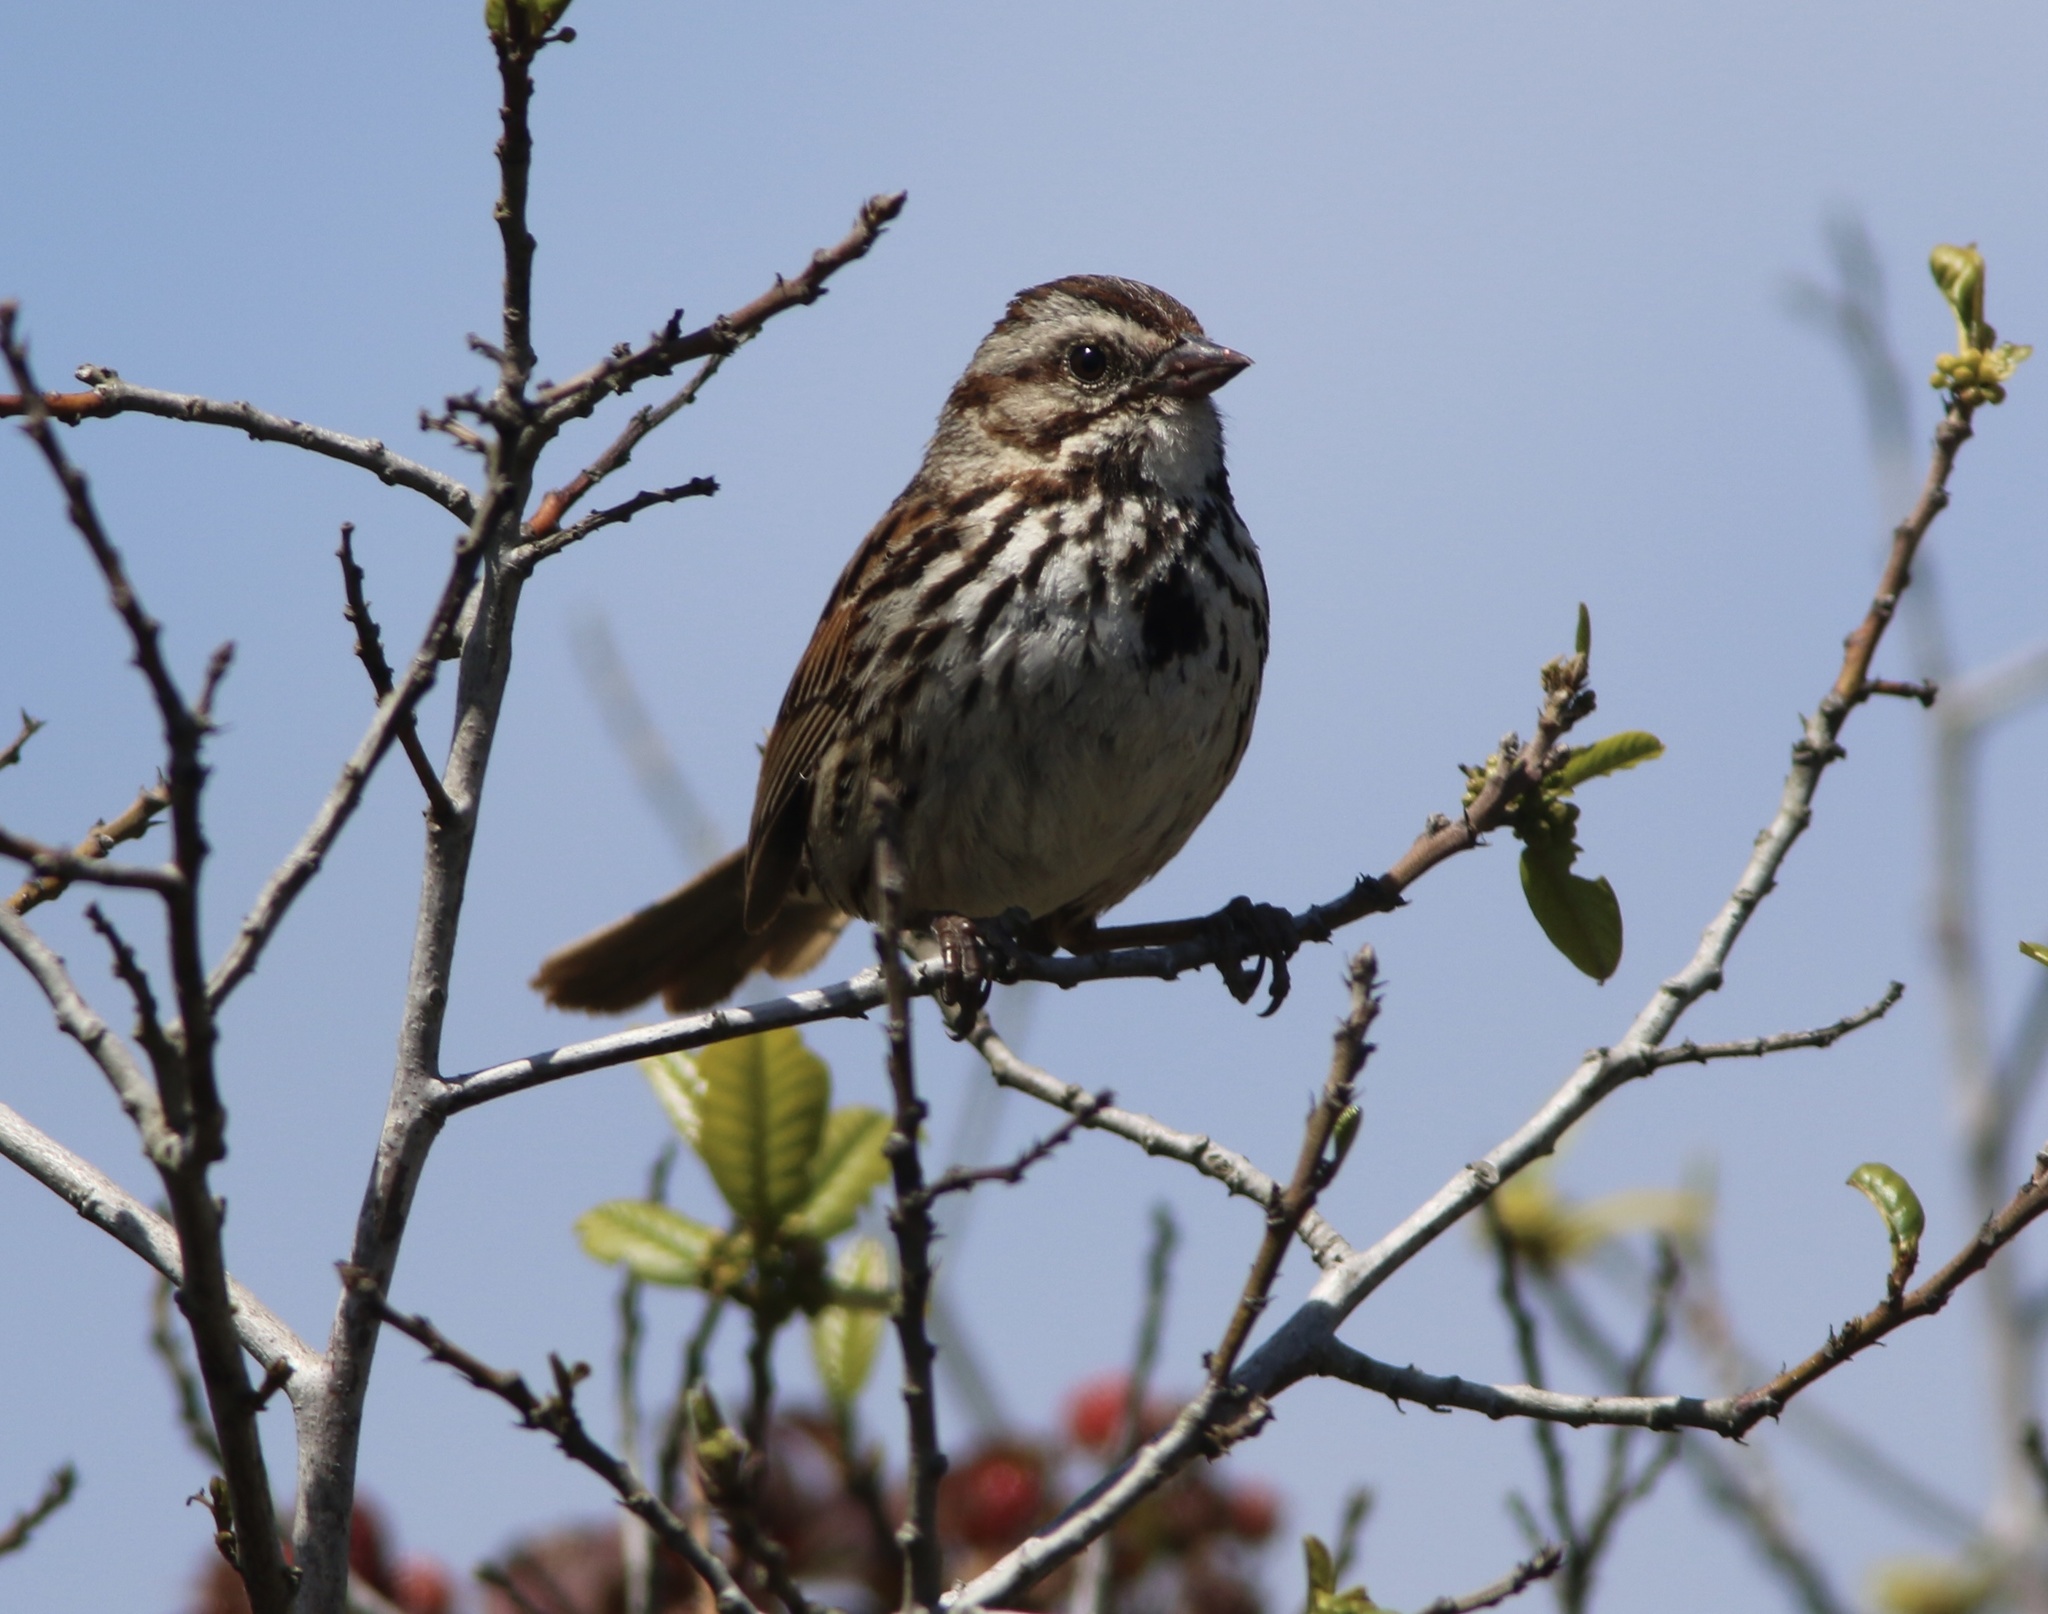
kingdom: Animalia
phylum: Chordata
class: Aves
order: Passeriformes
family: Passerellidae
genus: Melospiza
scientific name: Melospiza melodia
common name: Song sparrow
